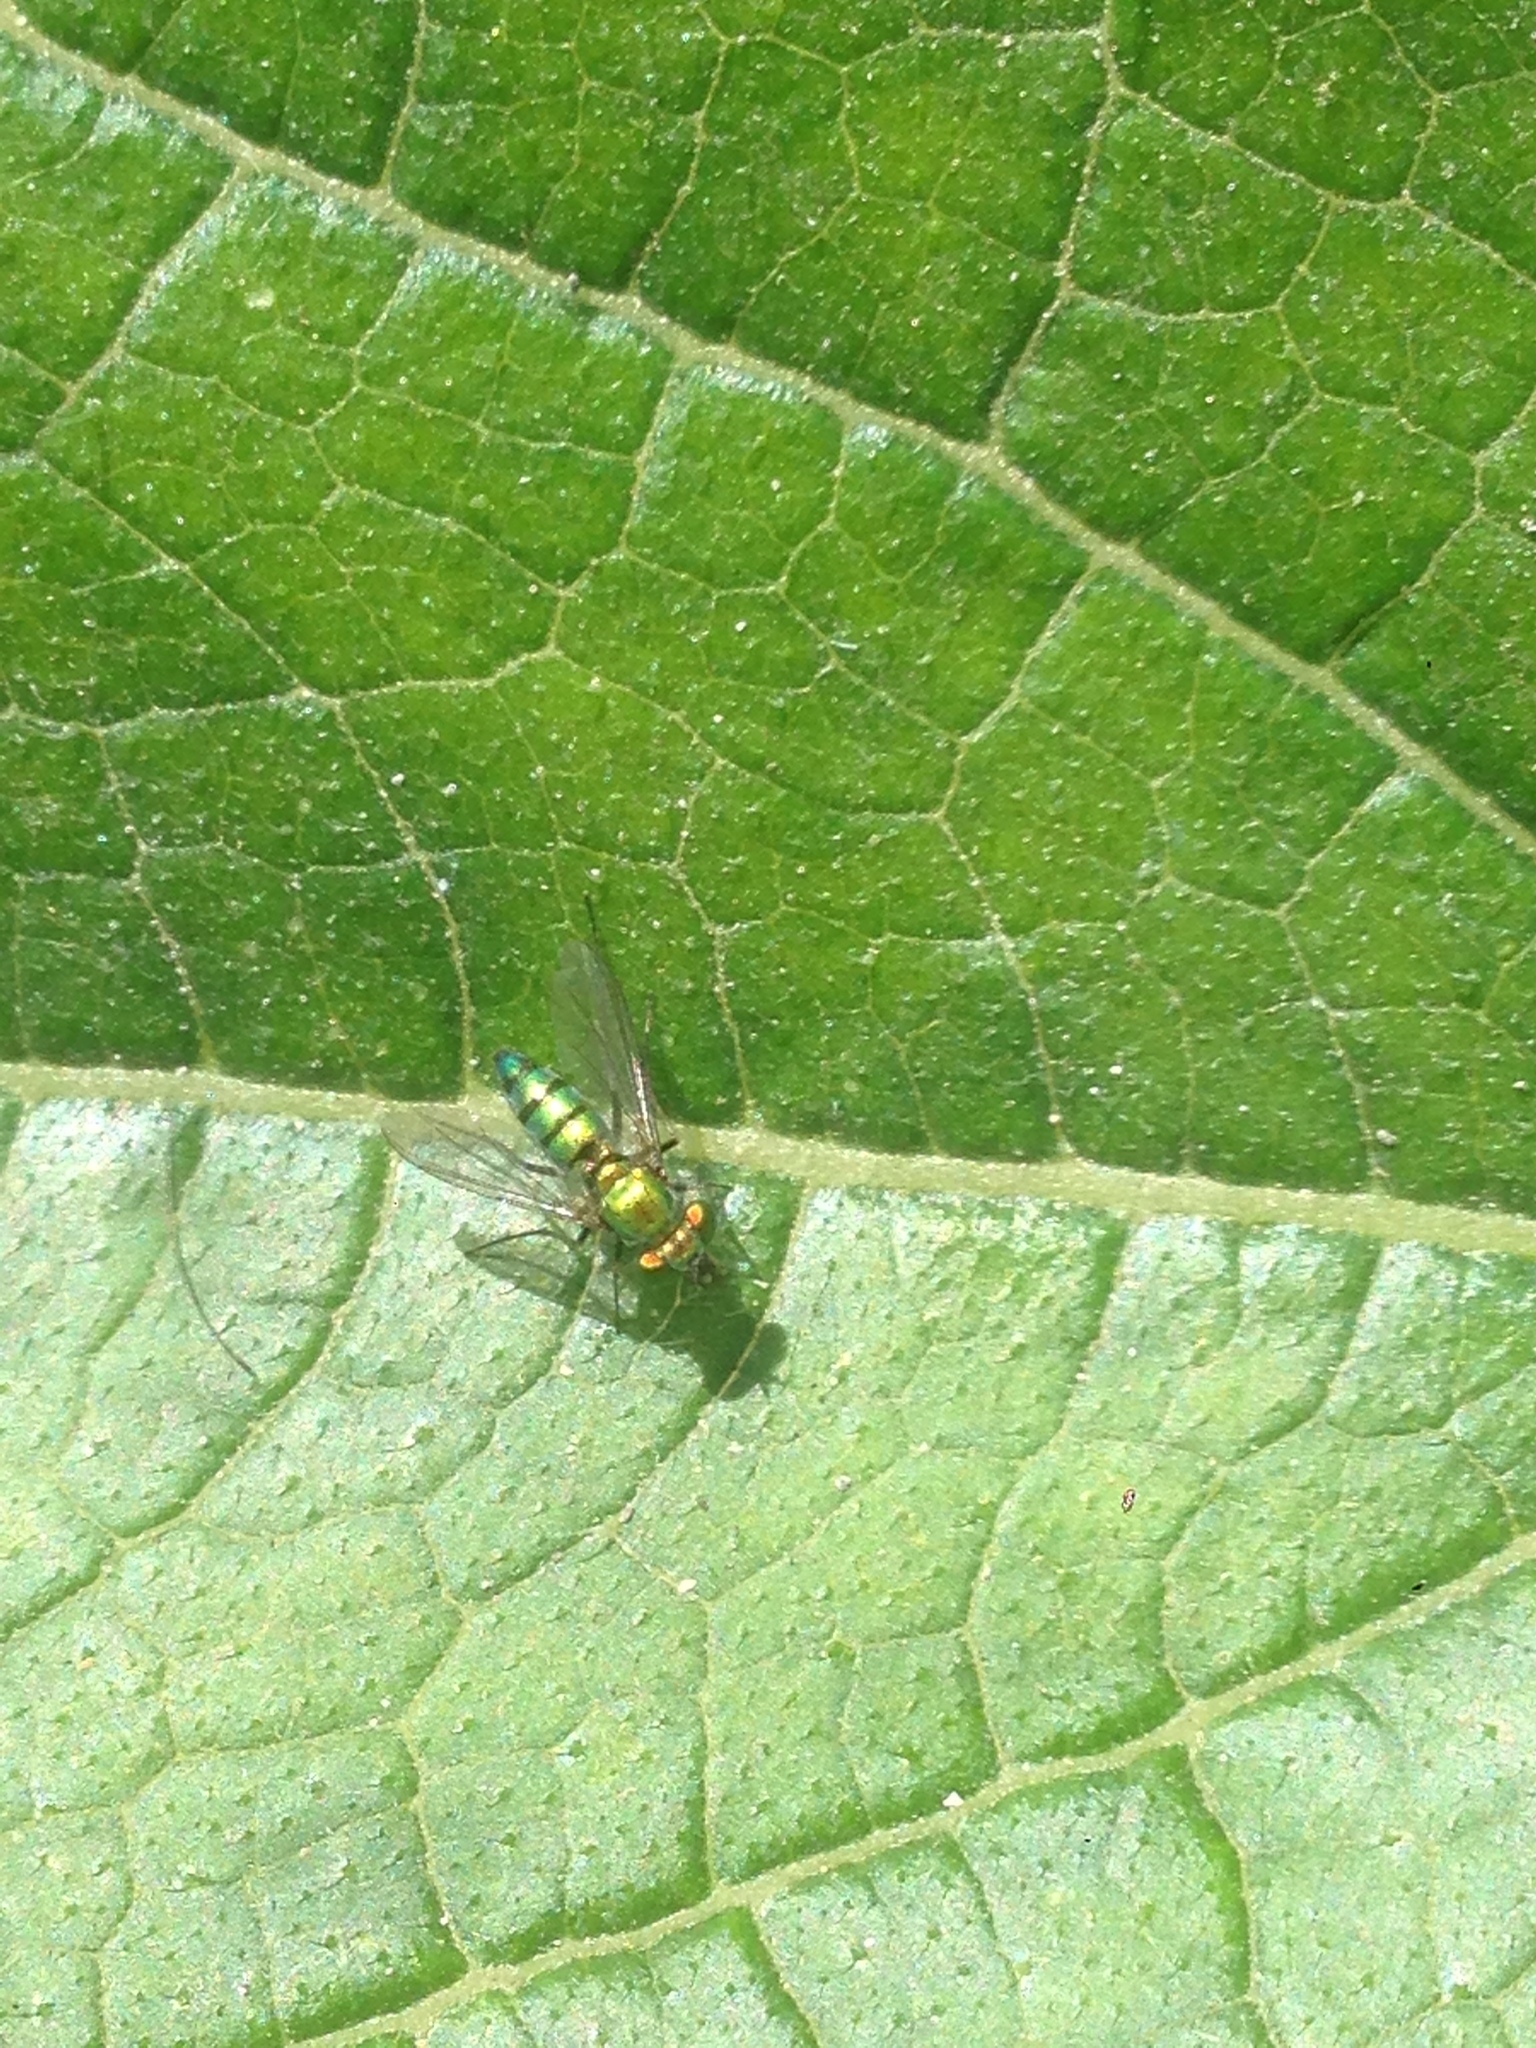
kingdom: Animalia
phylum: Arthropoda
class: Insecta
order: Diptera
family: Dolichopodidae
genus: Condylostylus
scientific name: Condylostylus longicornis
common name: Long-legged fly
